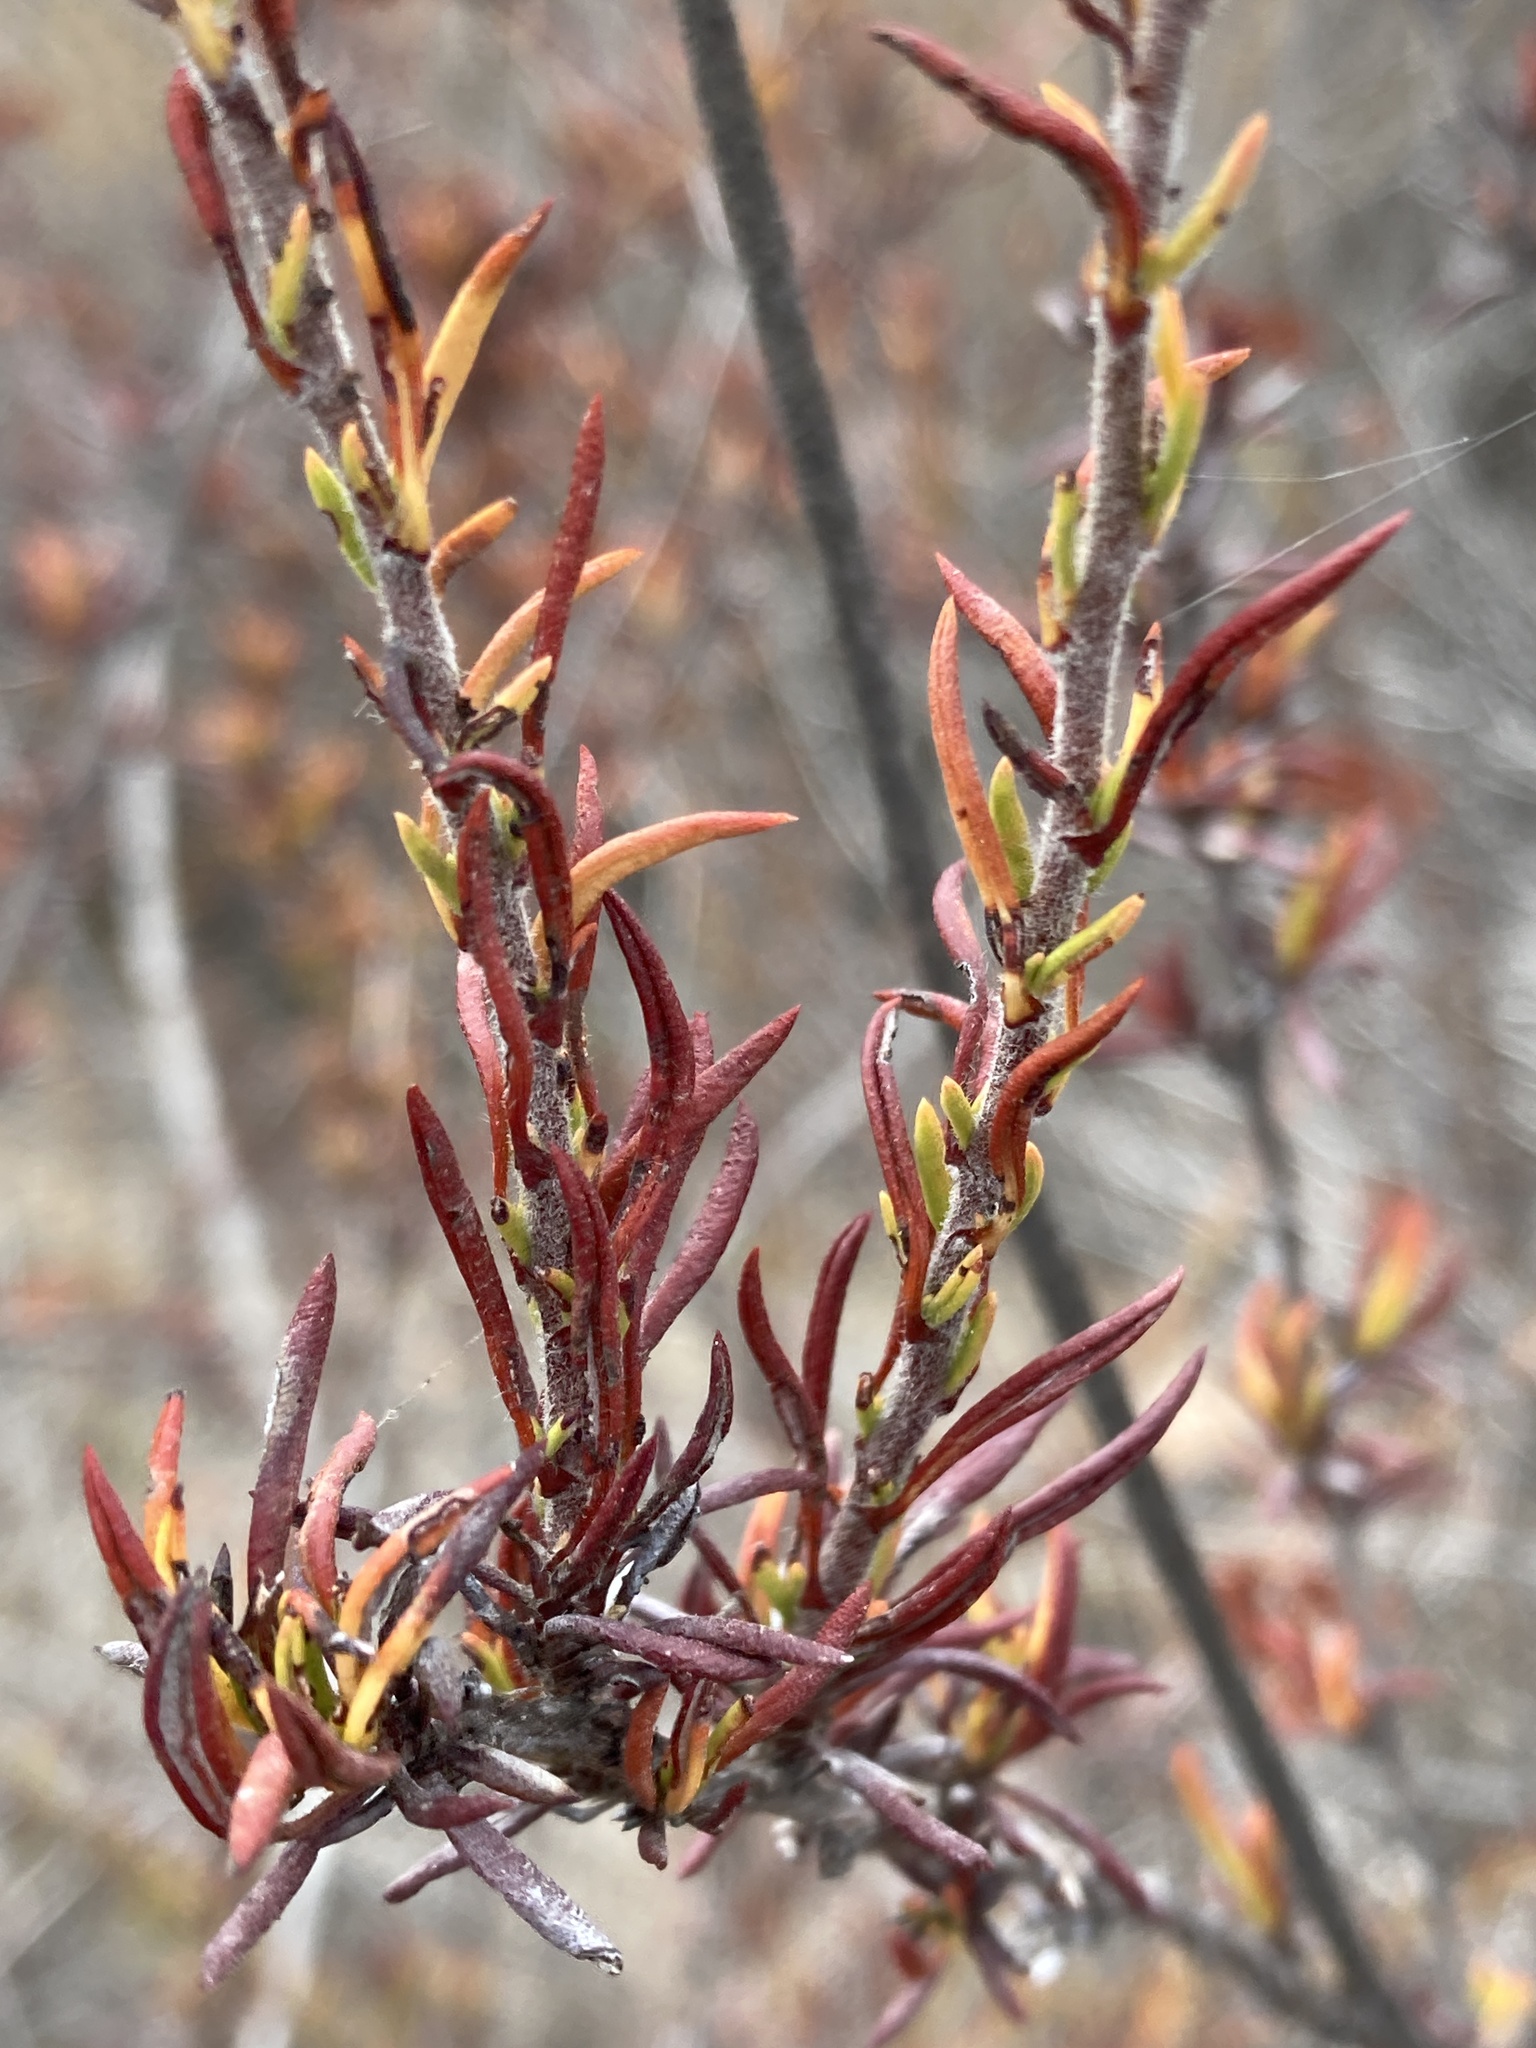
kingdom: Plantae
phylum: Tracheophyta
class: Magnoliopsida
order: Caryophyllales
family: Polygonaceae
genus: Eriogonum
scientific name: Eriogonum fasciculatum
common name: California wild buckwheat
